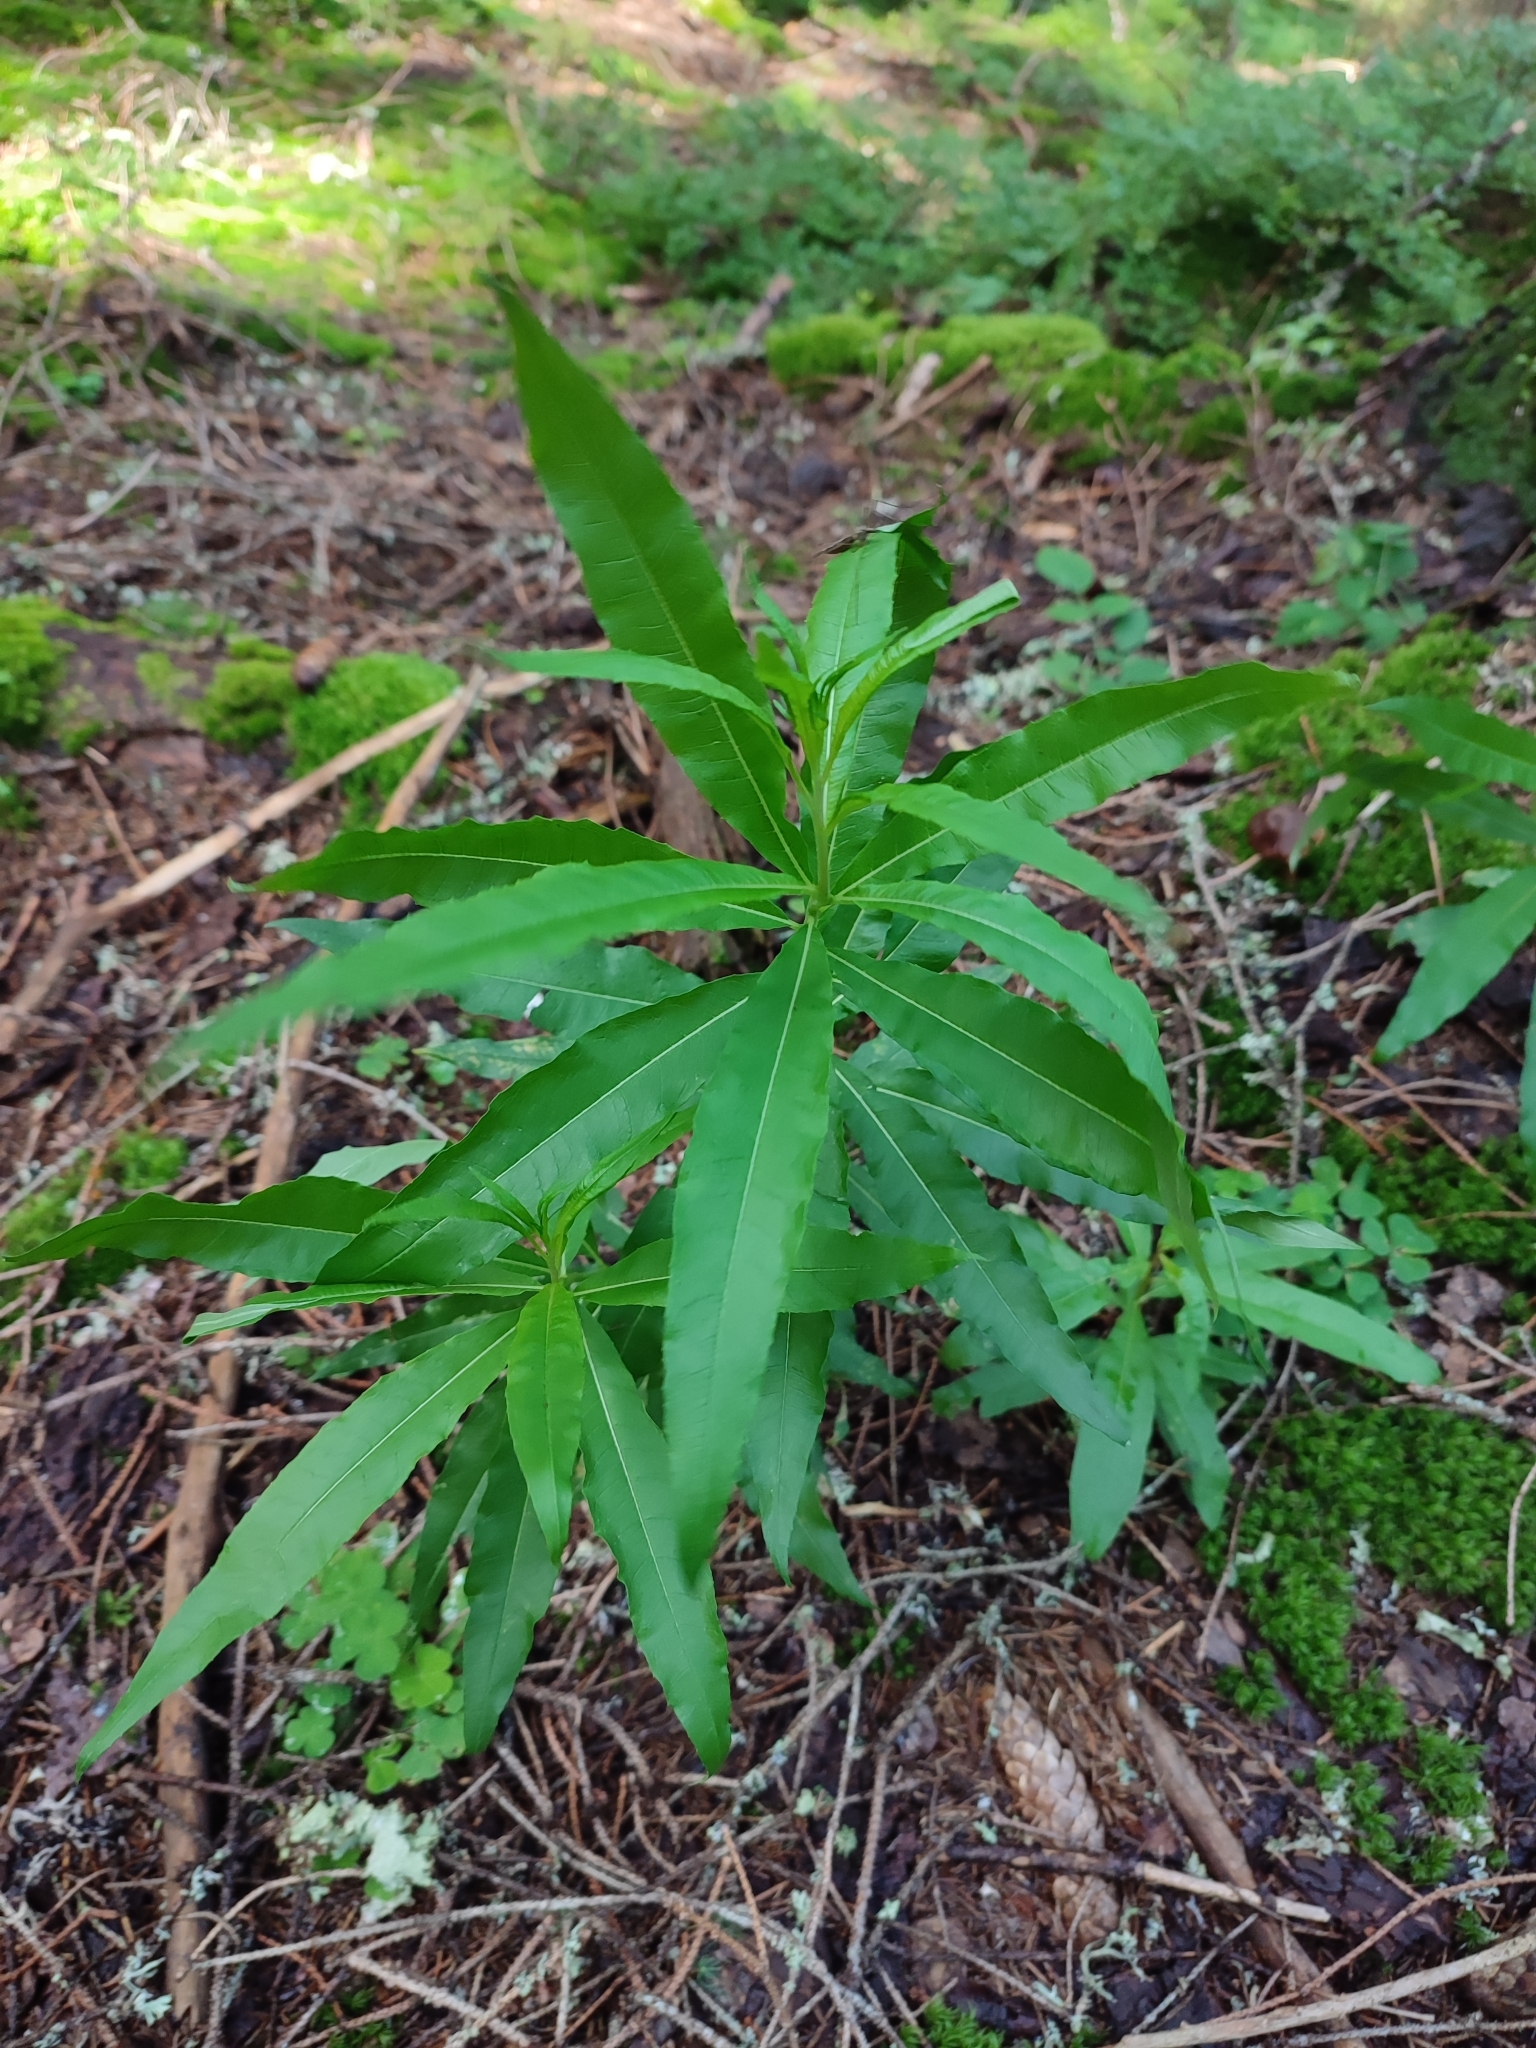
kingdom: Plantae
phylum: Tracheophyta
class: Magnoliopsida
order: Myrtales
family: Onagraceae
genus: Chamaenerion
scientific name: Chamaenerion angustifolium
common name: Fireweed
